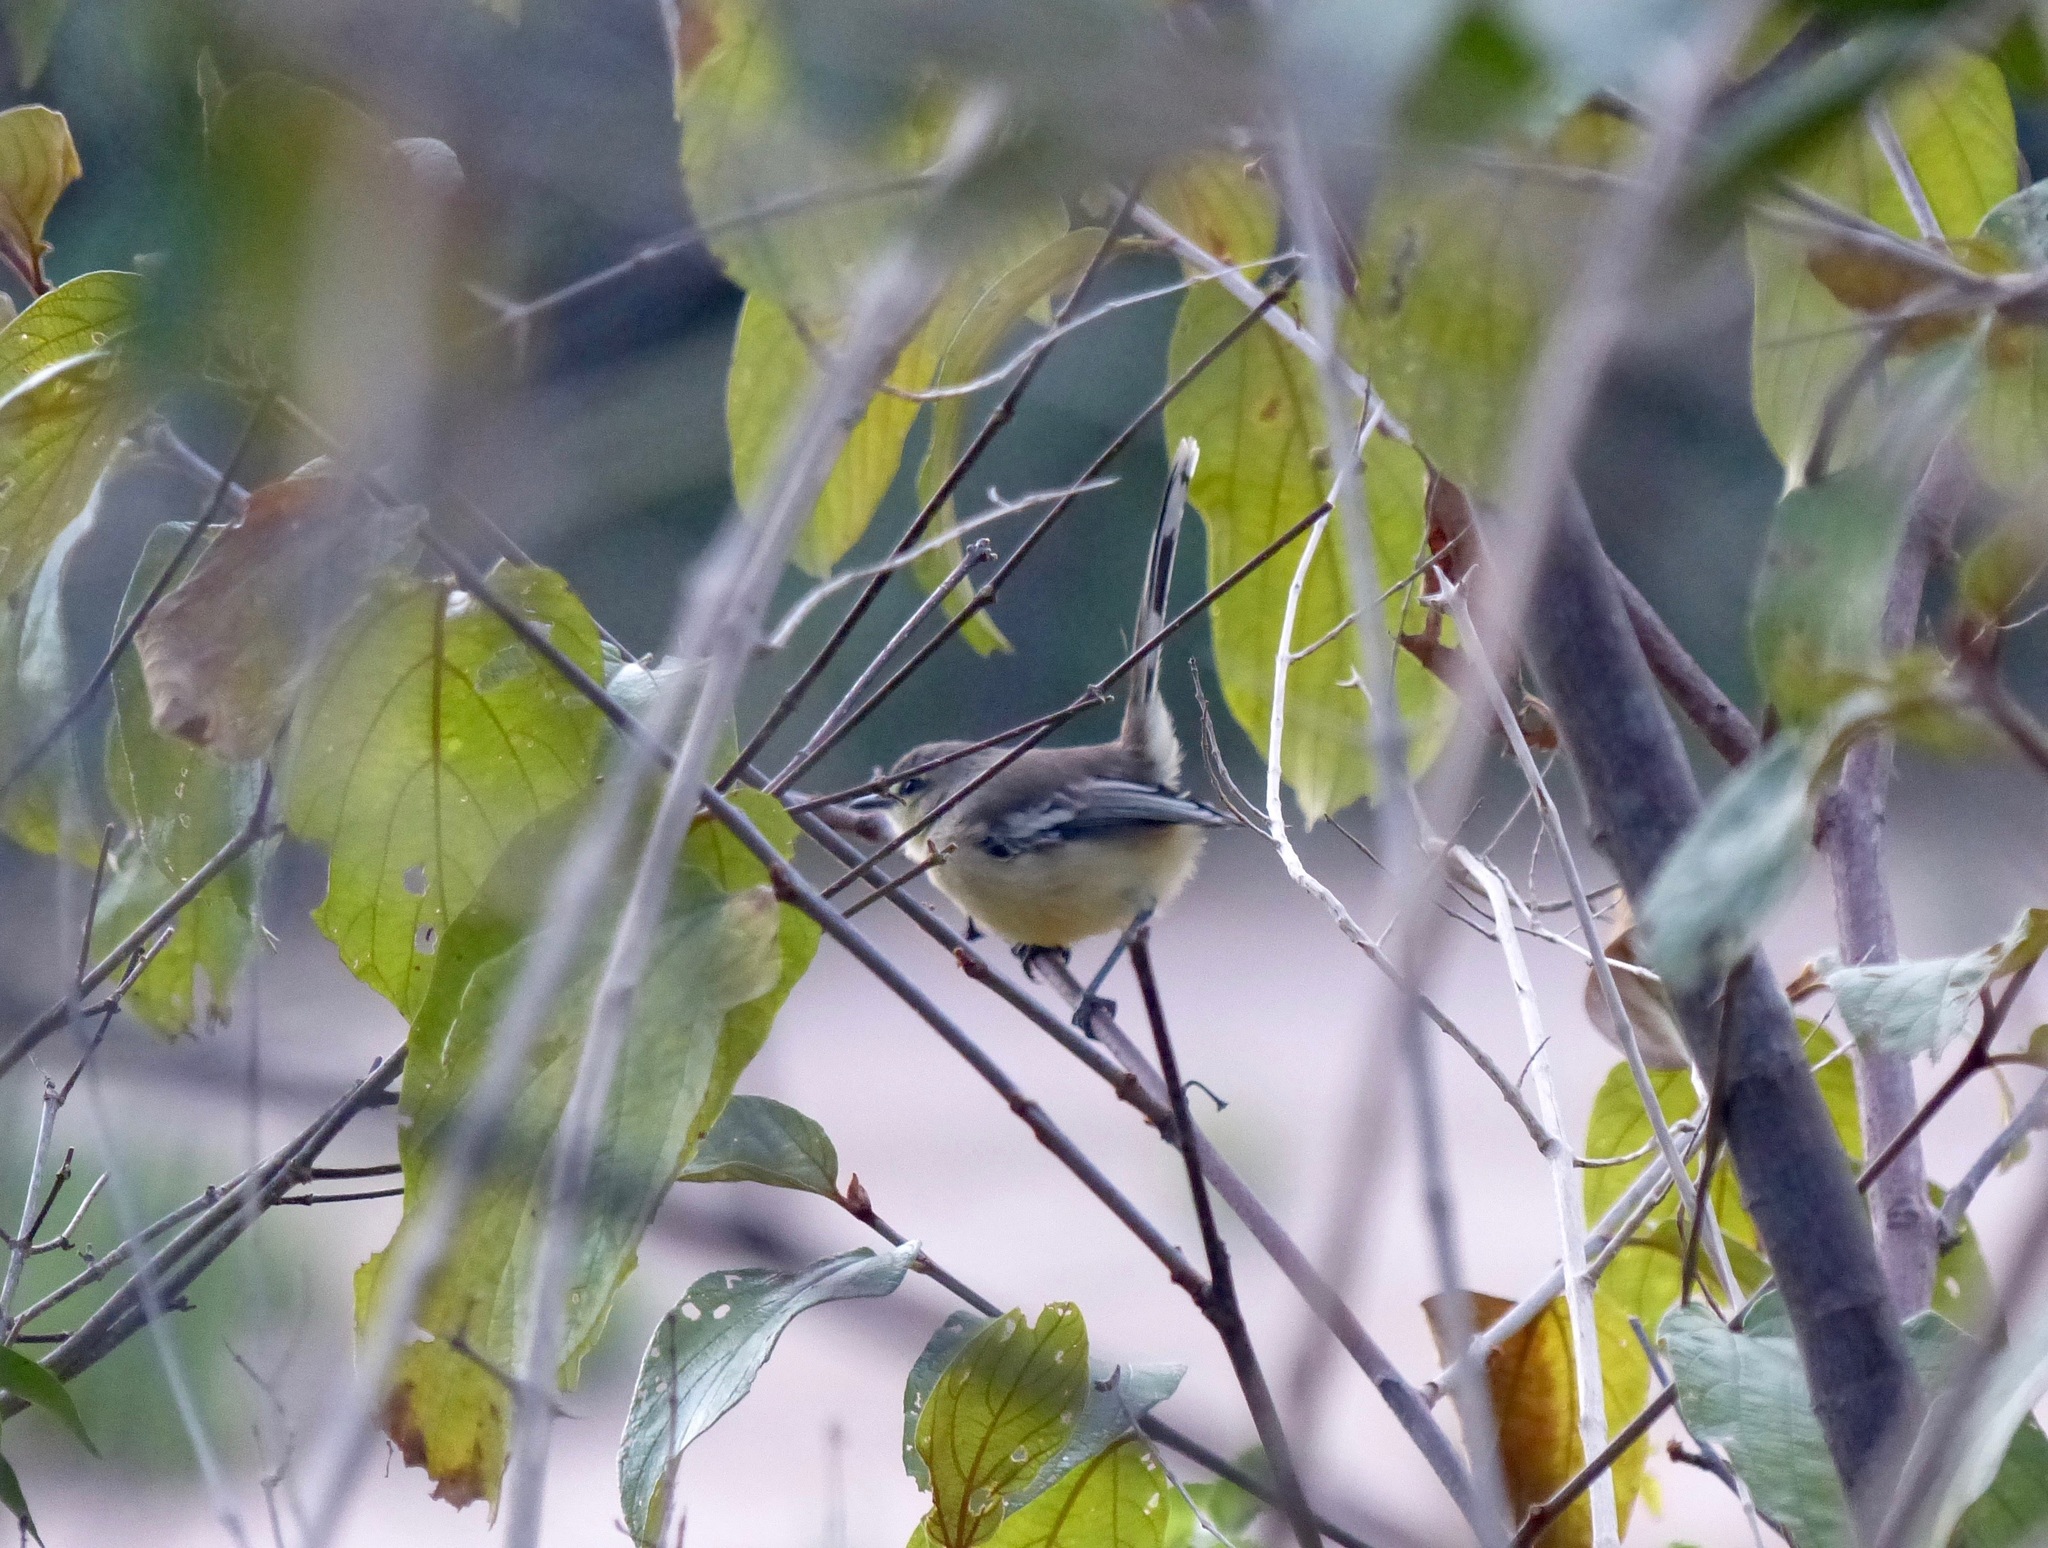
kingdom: Animalia
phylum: Chordata
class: Aves
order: Passeriformes
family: Tyrannidae
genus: Stigmatura
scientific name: Stigmatura bahiae
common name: Bahia wagtail-tyrant
